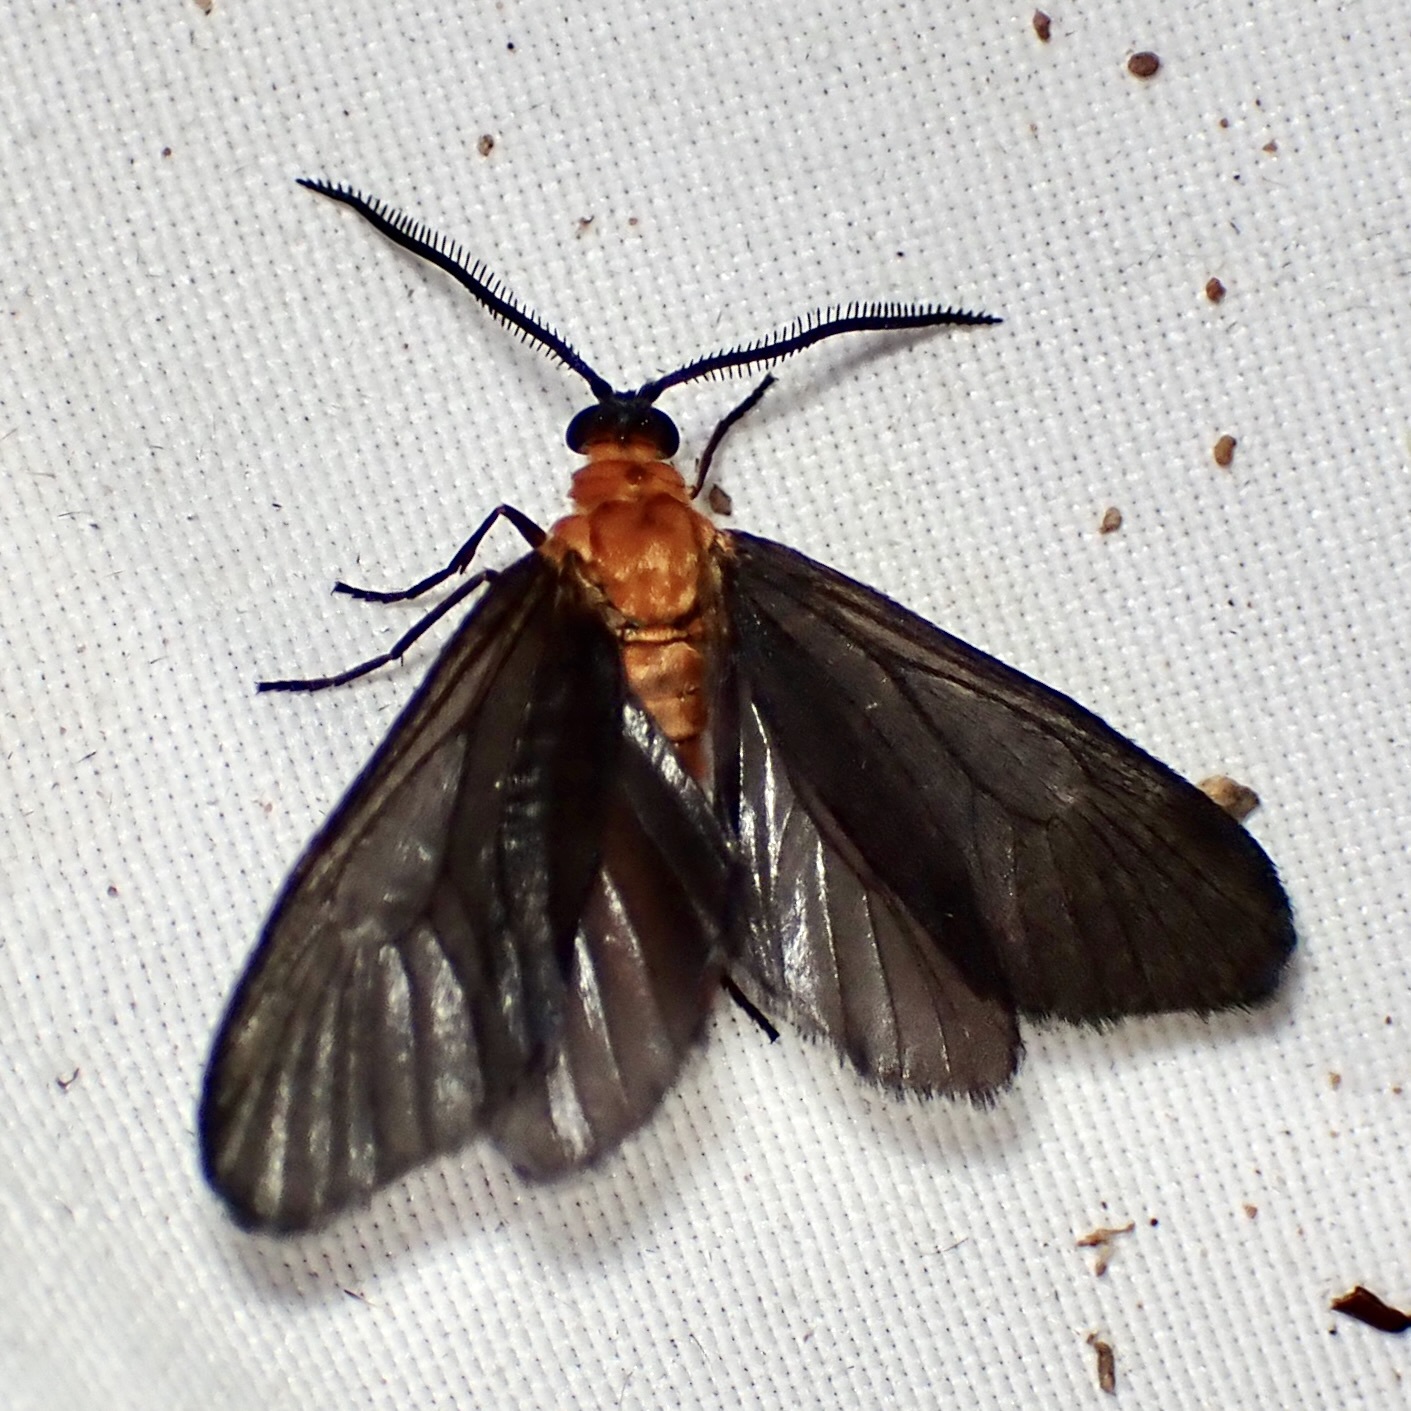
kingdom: Animalia
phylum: Arthropoda
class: Insecta
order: Lepidoptera
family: Zygaenidae
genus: Neoilliberis
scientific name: Neoilliberis fusca
